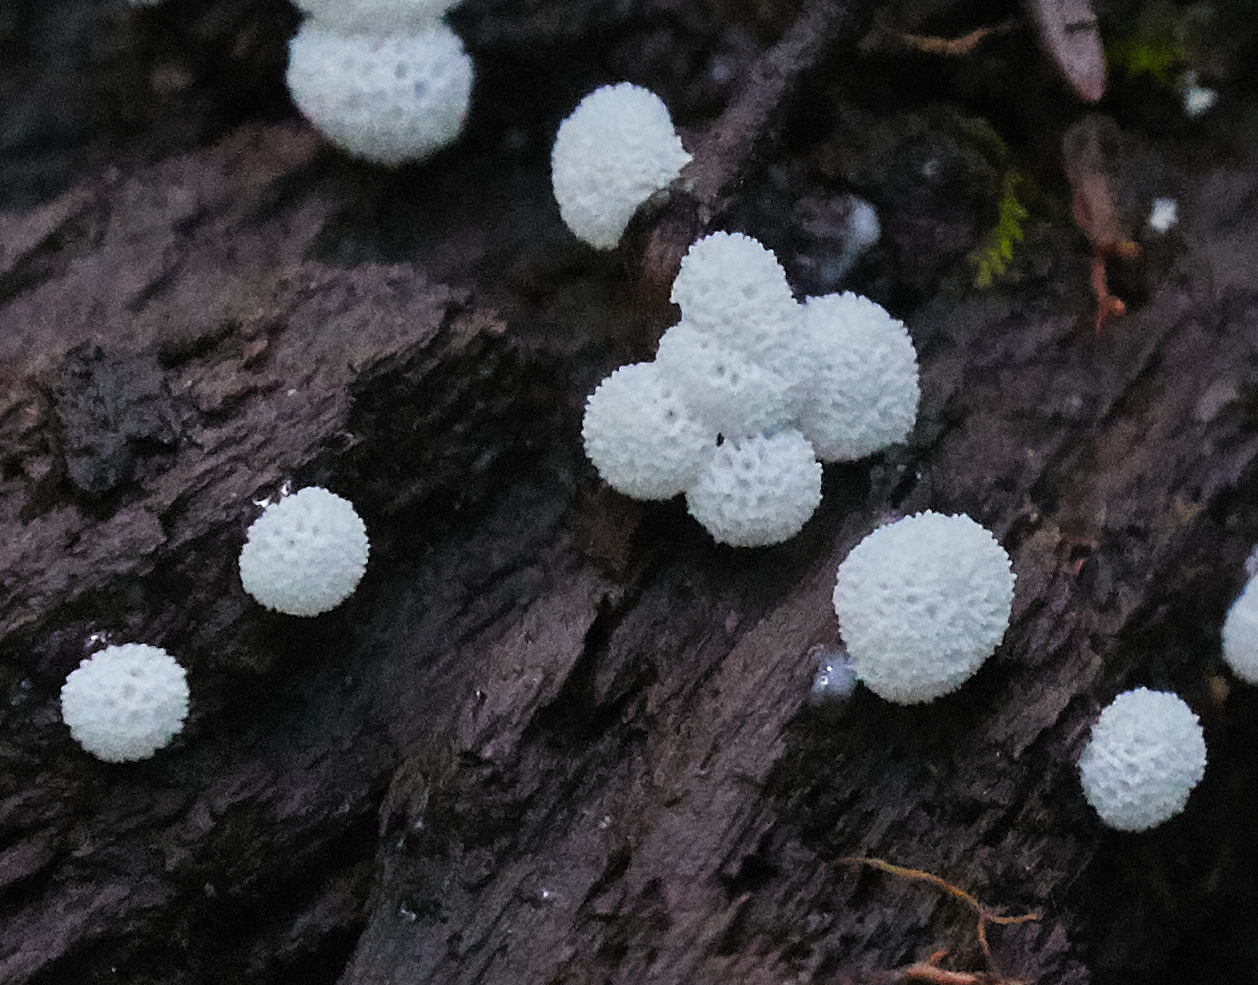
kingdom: Protozoa
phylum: Mycetozoa
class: Protosteliomycetes
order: Ceratiomyxales
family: Ceratiomyxaceae
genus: Ceratiomyxa
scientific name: Ceratiomyxa fruticulosa
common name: Honeycomb coral slime mold
